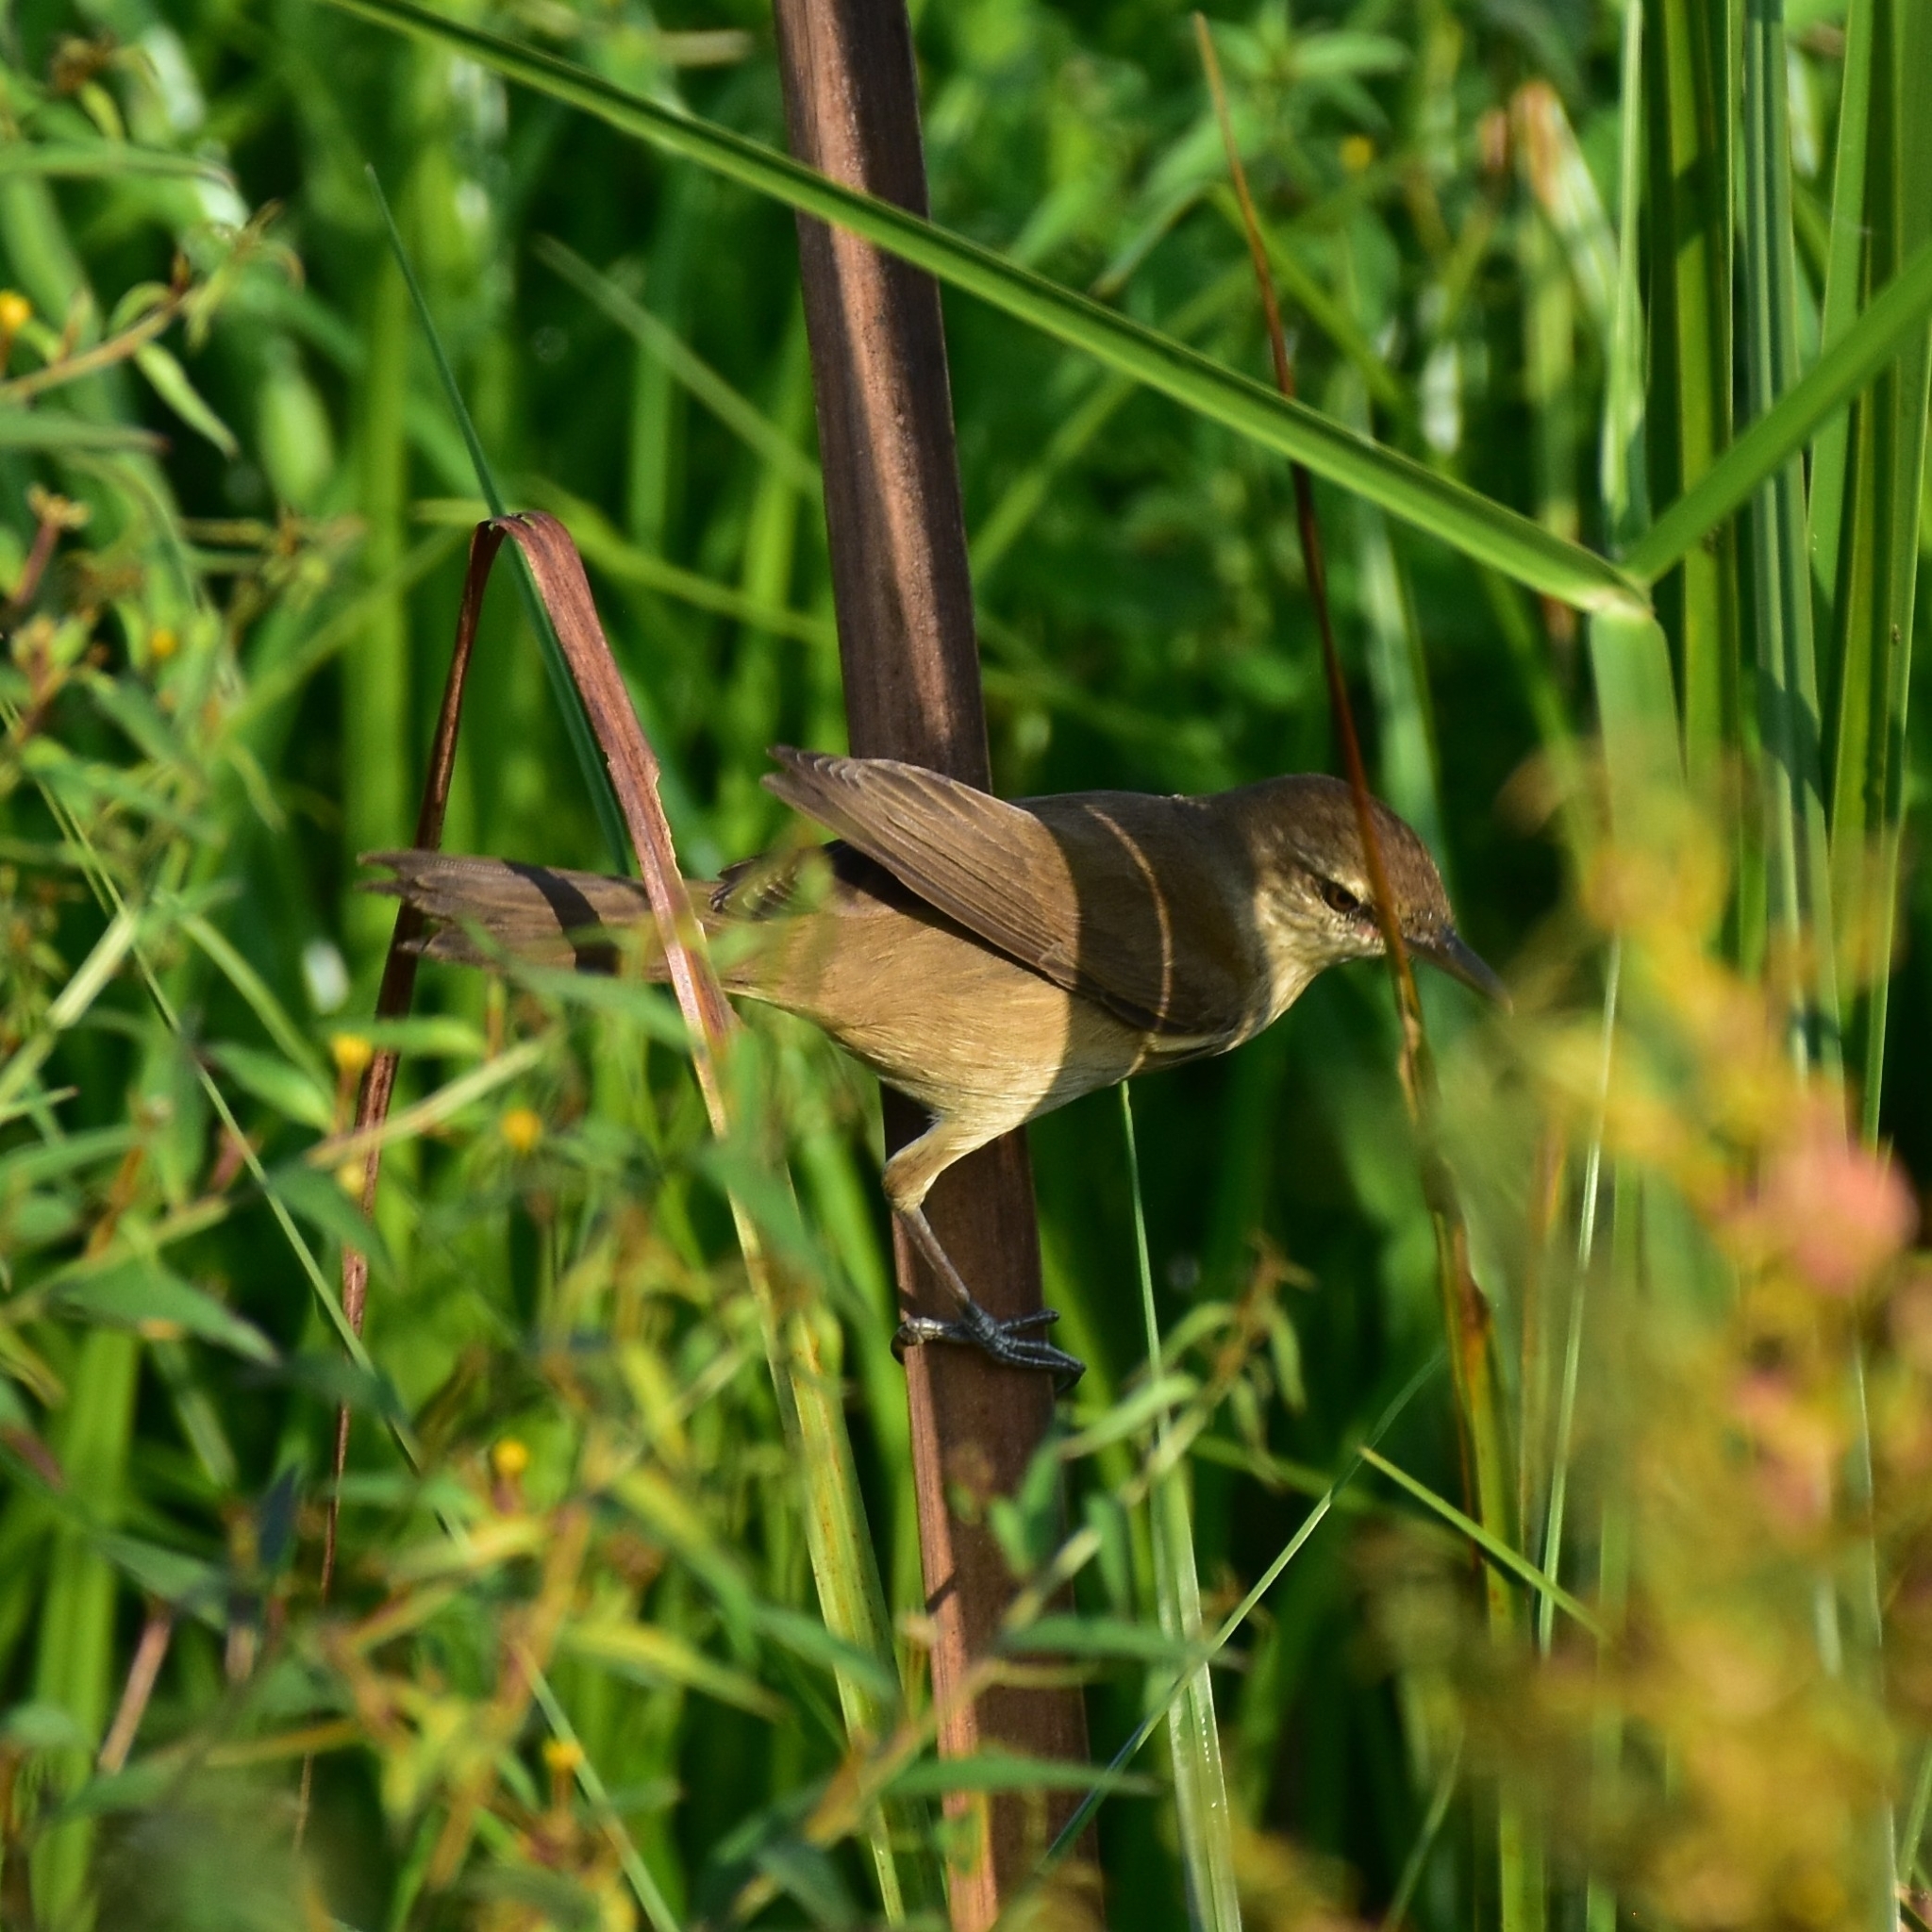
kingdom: Animalia
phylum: Chordata
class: Aves
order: Passeriformes
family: Acrocephalidae
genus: Acrocephalus
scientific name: Acrocephalus stentoreus
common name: Clamorous reed warbler
